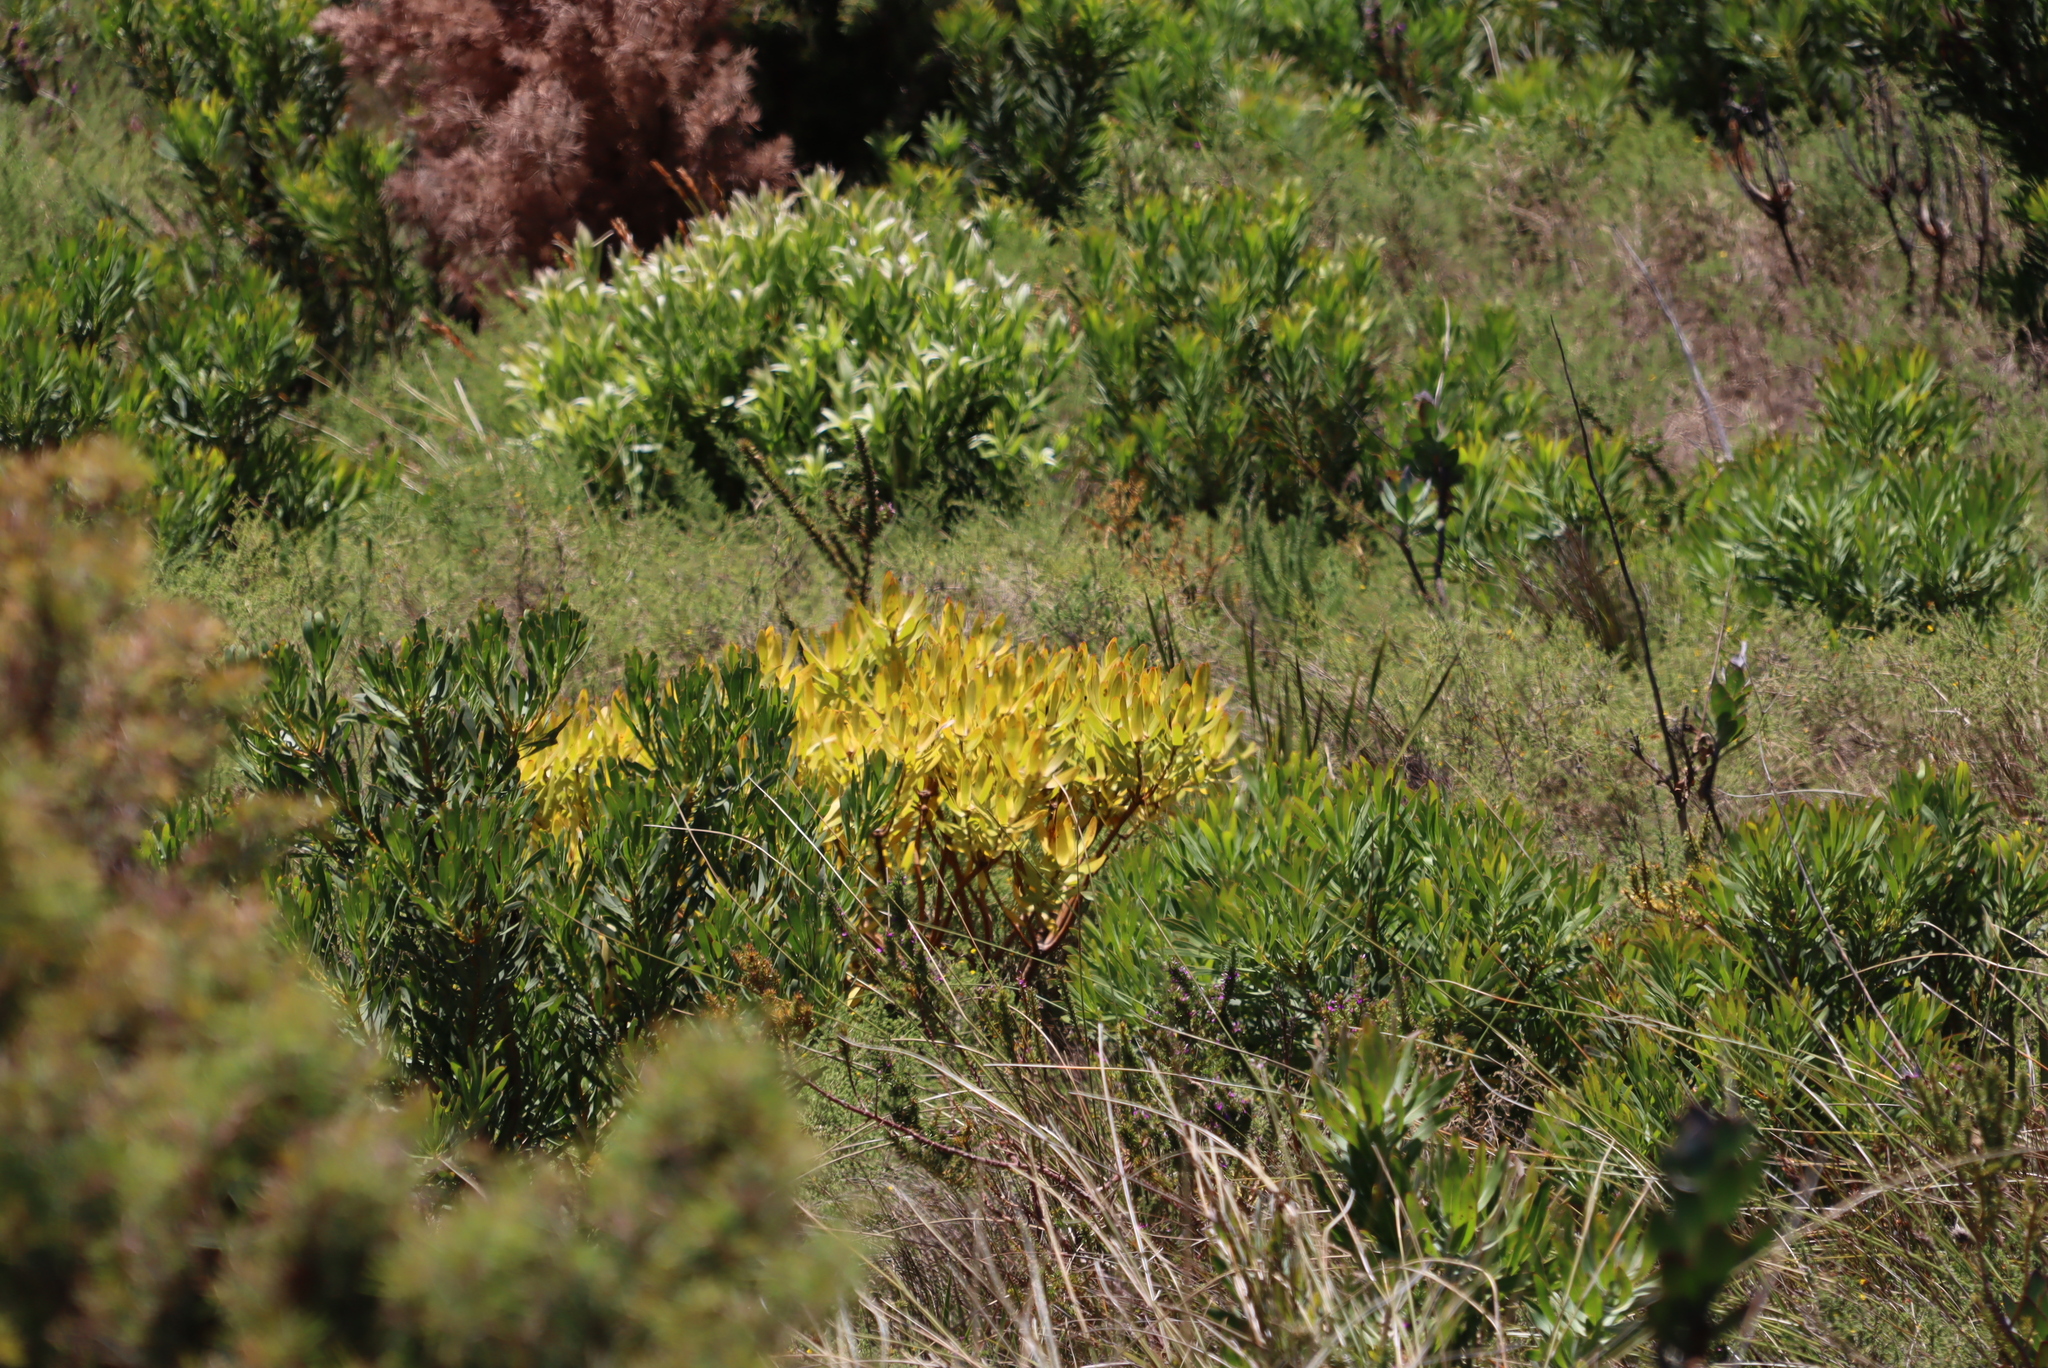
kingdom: Plantae
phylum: Tracheophyta
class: Magnoliopsida
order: Proteales
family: Proteaceae
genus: Leucadendron
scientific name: Leucadendron laureolum
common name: Golden sunshinebush
